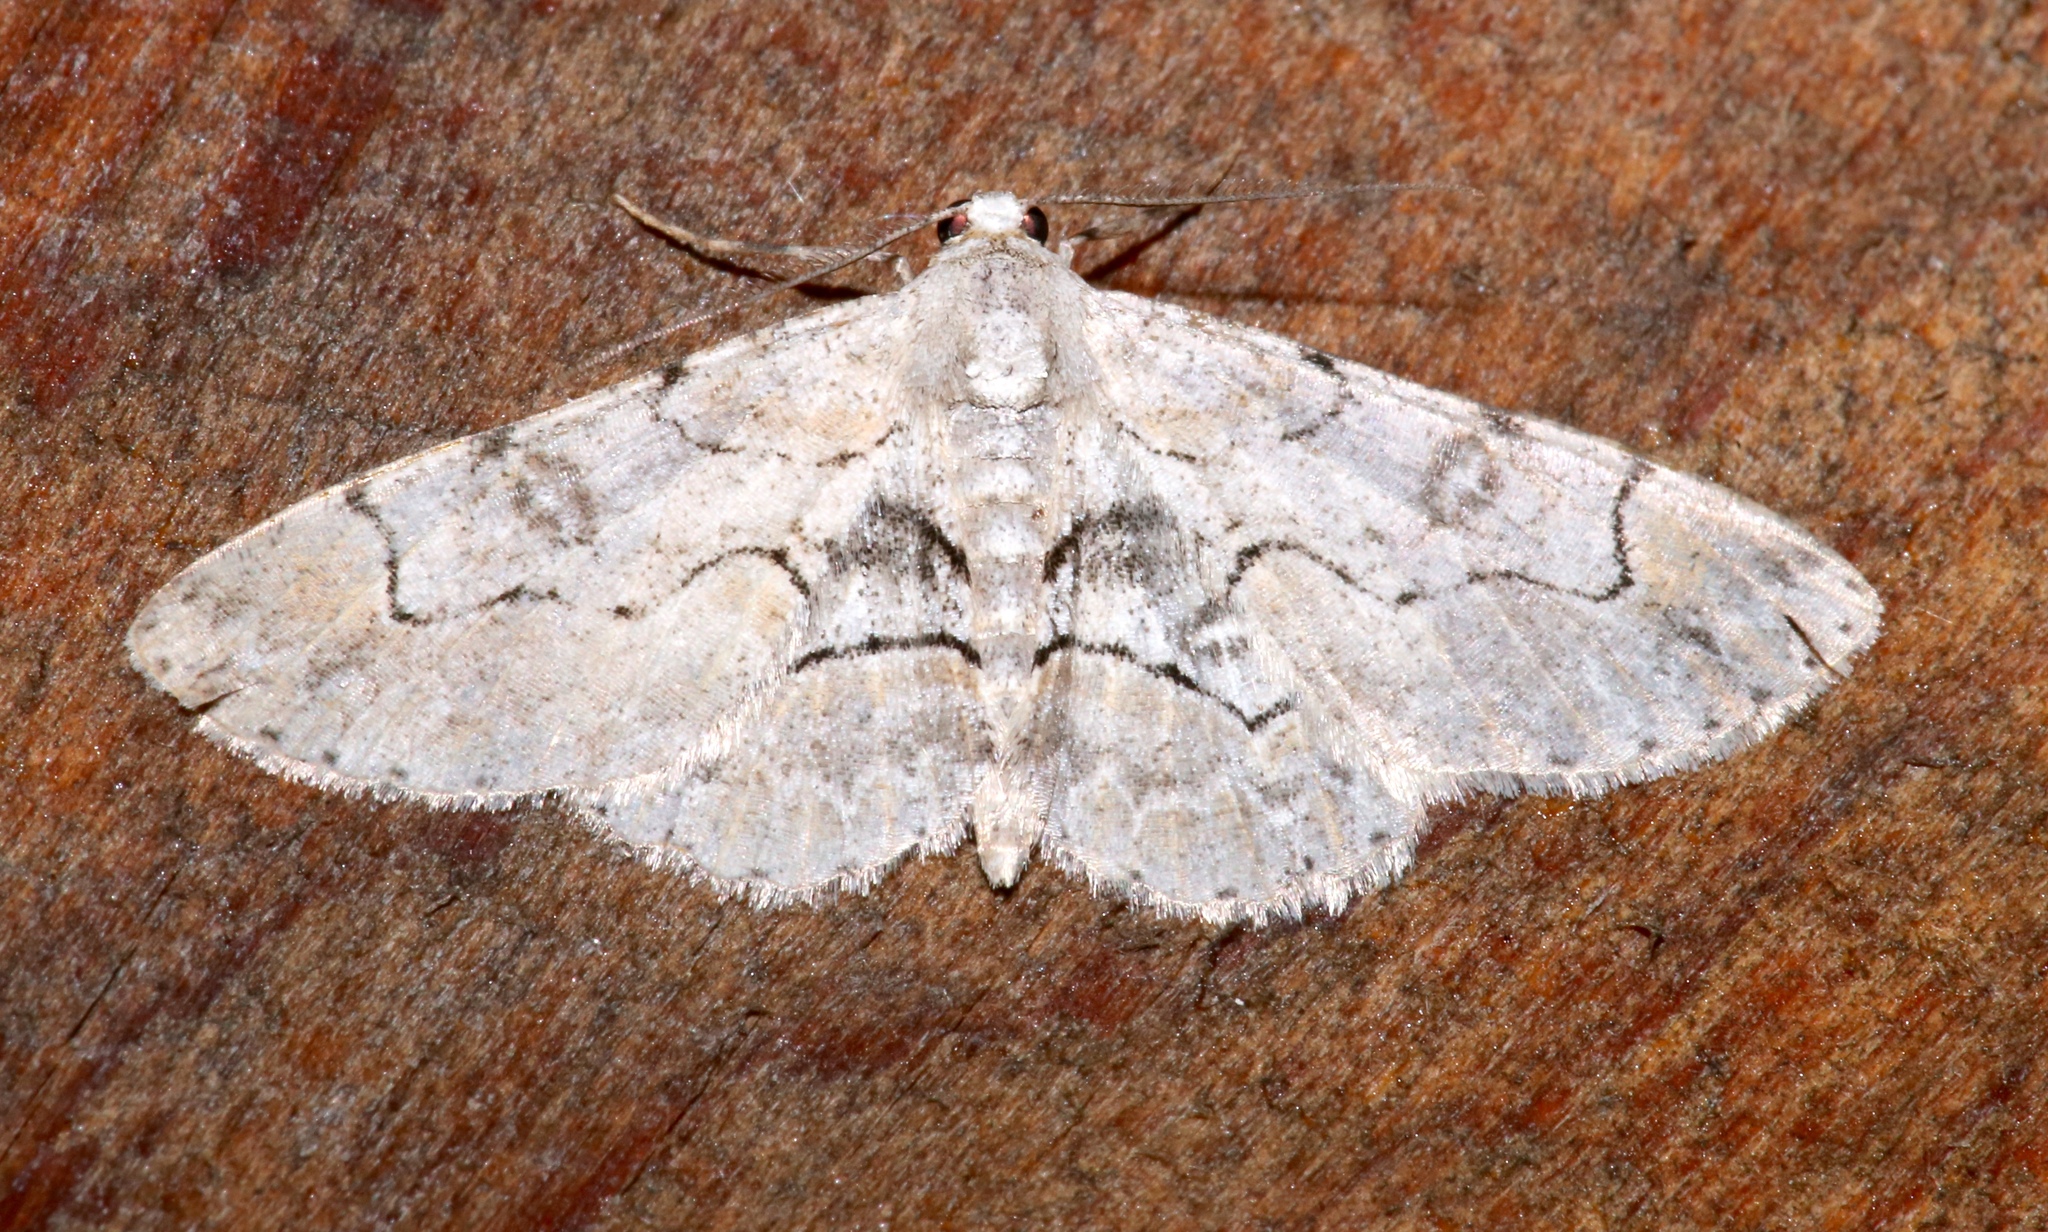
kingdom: Animalia
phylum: Arthropoda
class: Insecta
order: Lepidoptera
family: Geometridae
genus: Iridopsis
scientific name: Iridopsis larvaria
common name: Bent-line gray
